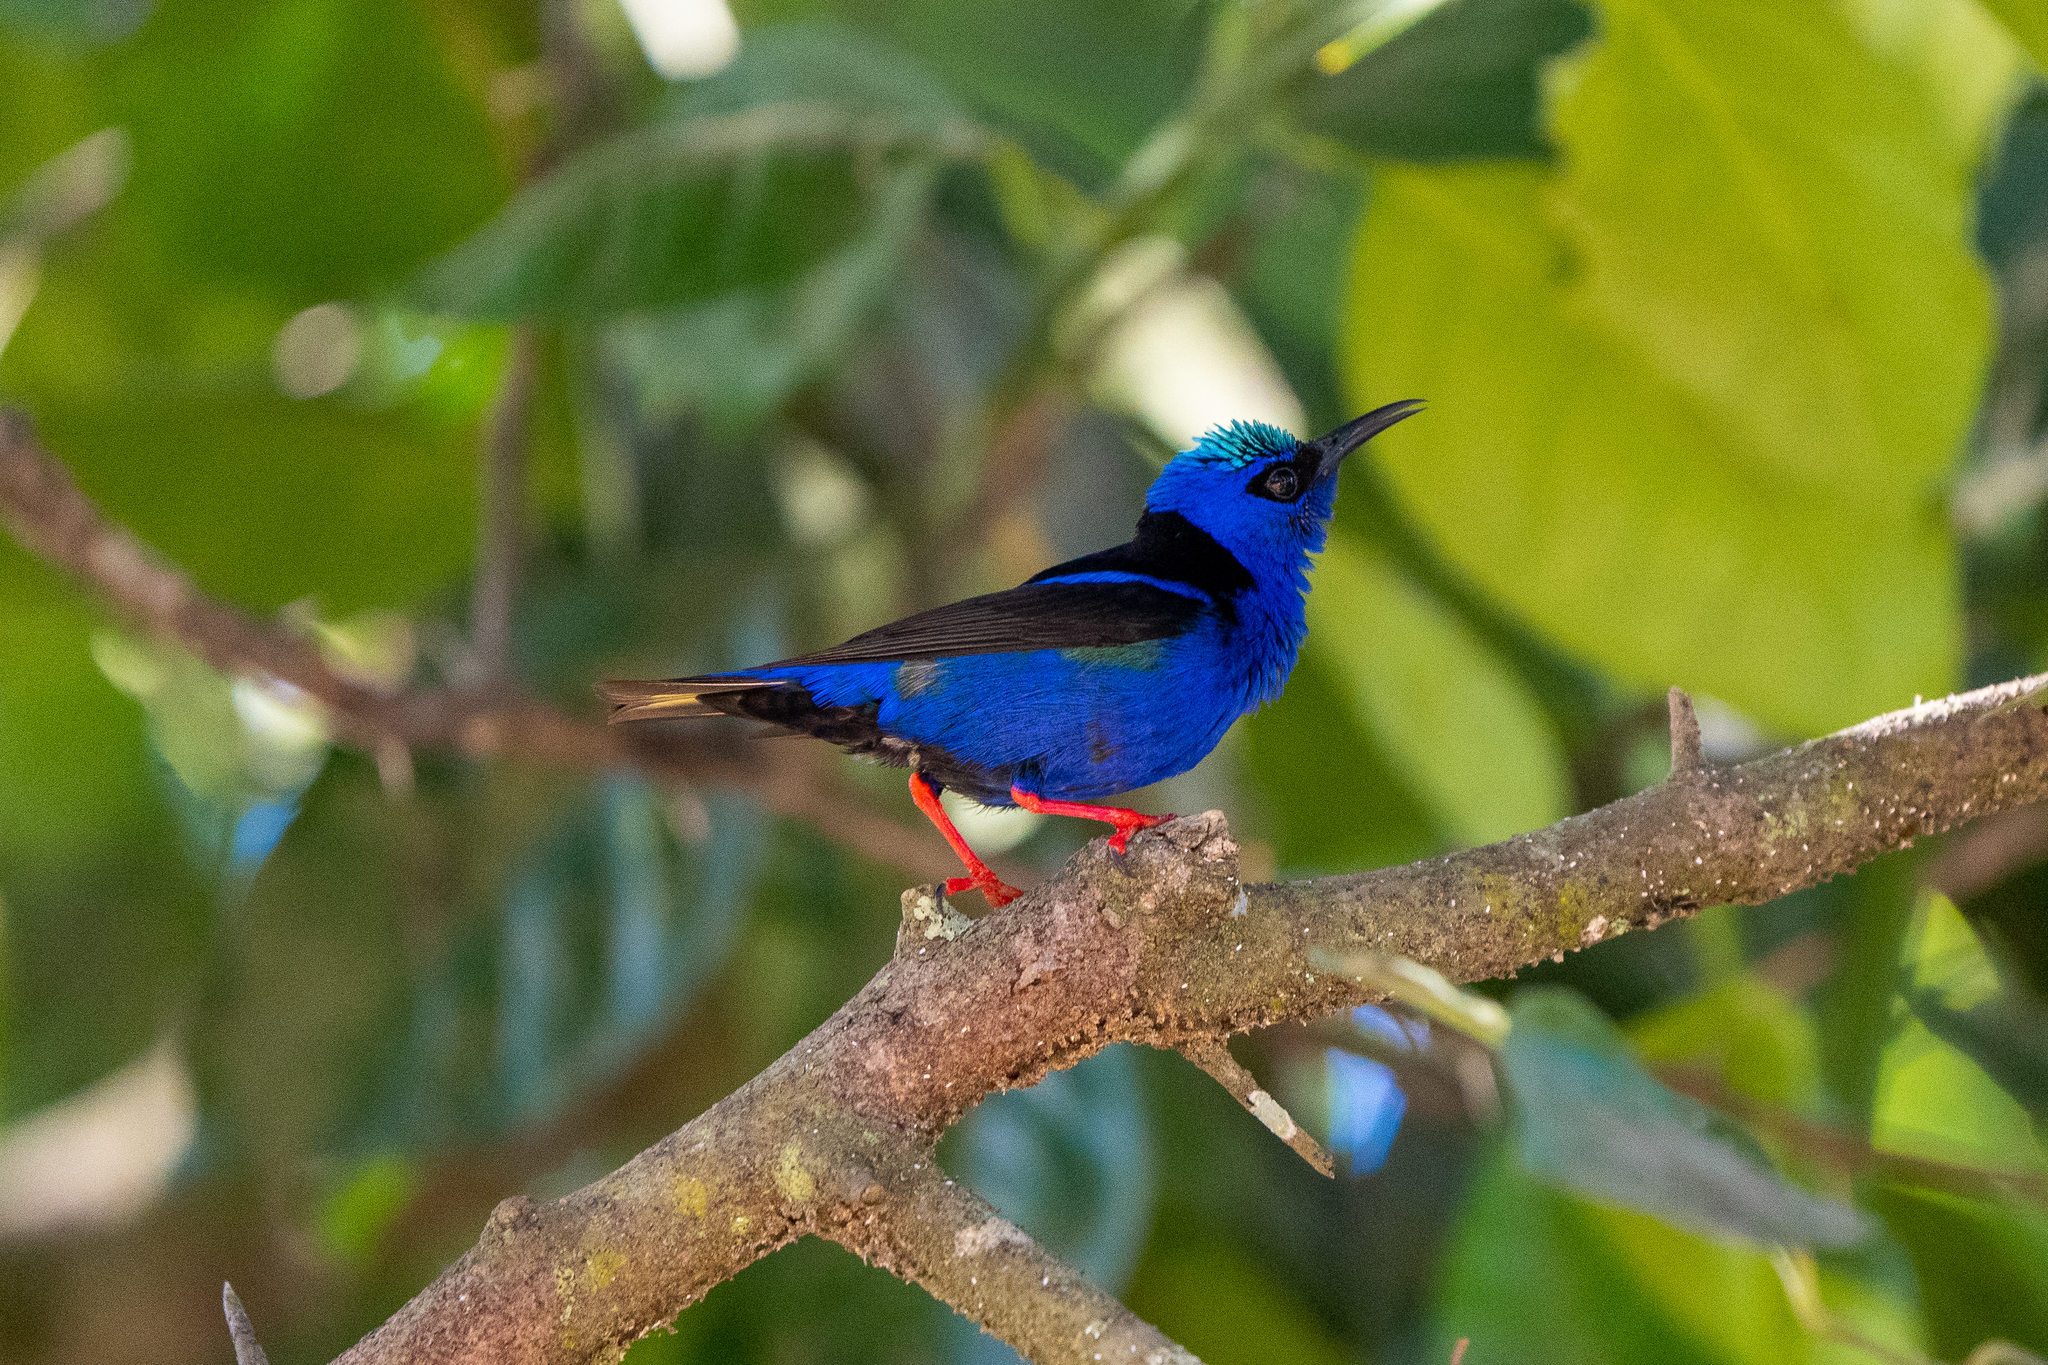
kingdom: Animalia
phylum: Chordata
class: Aves
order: Passeriformes
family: Thraupidae
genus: Cyanerpes
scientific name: Cyanerpes cyaneus
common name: Red-legged honeycreeper
